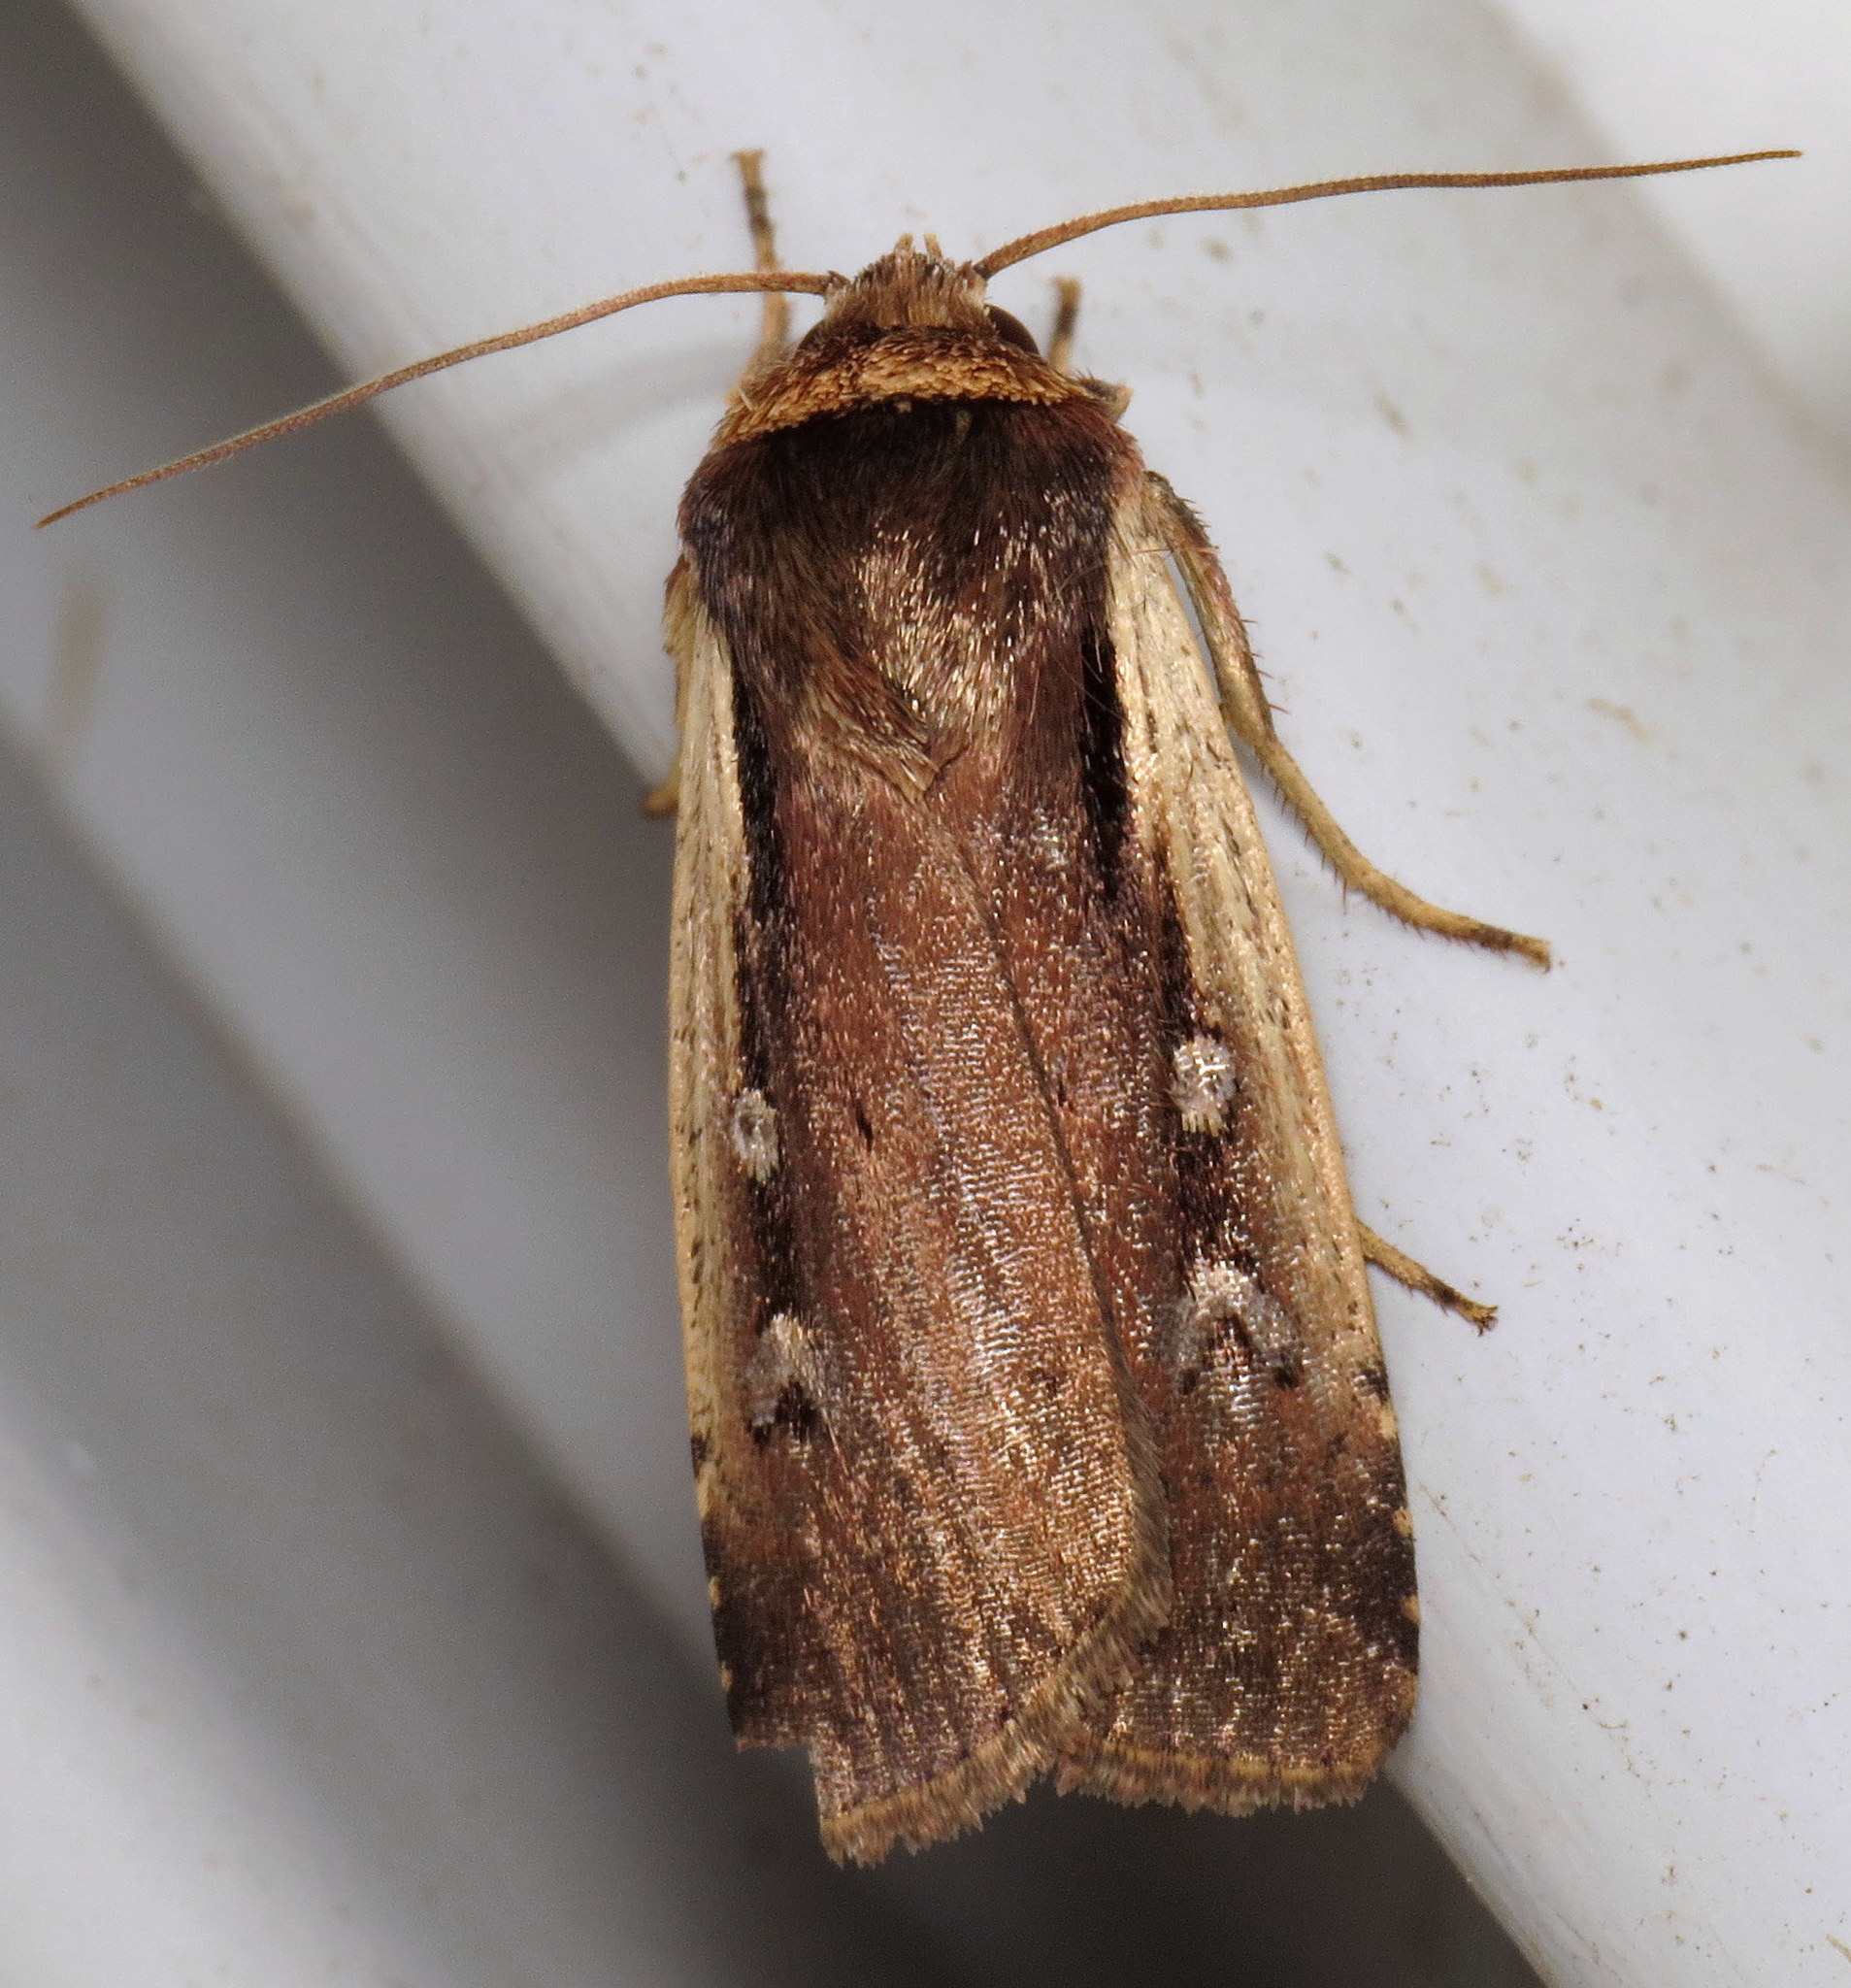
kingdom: Animalia
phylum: Arthropoda
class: Insecta
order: Lepidoptera
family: Noctuidae
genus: Ochropleura
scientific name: Ochropleura implecta
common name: Flame-shouldered dart
